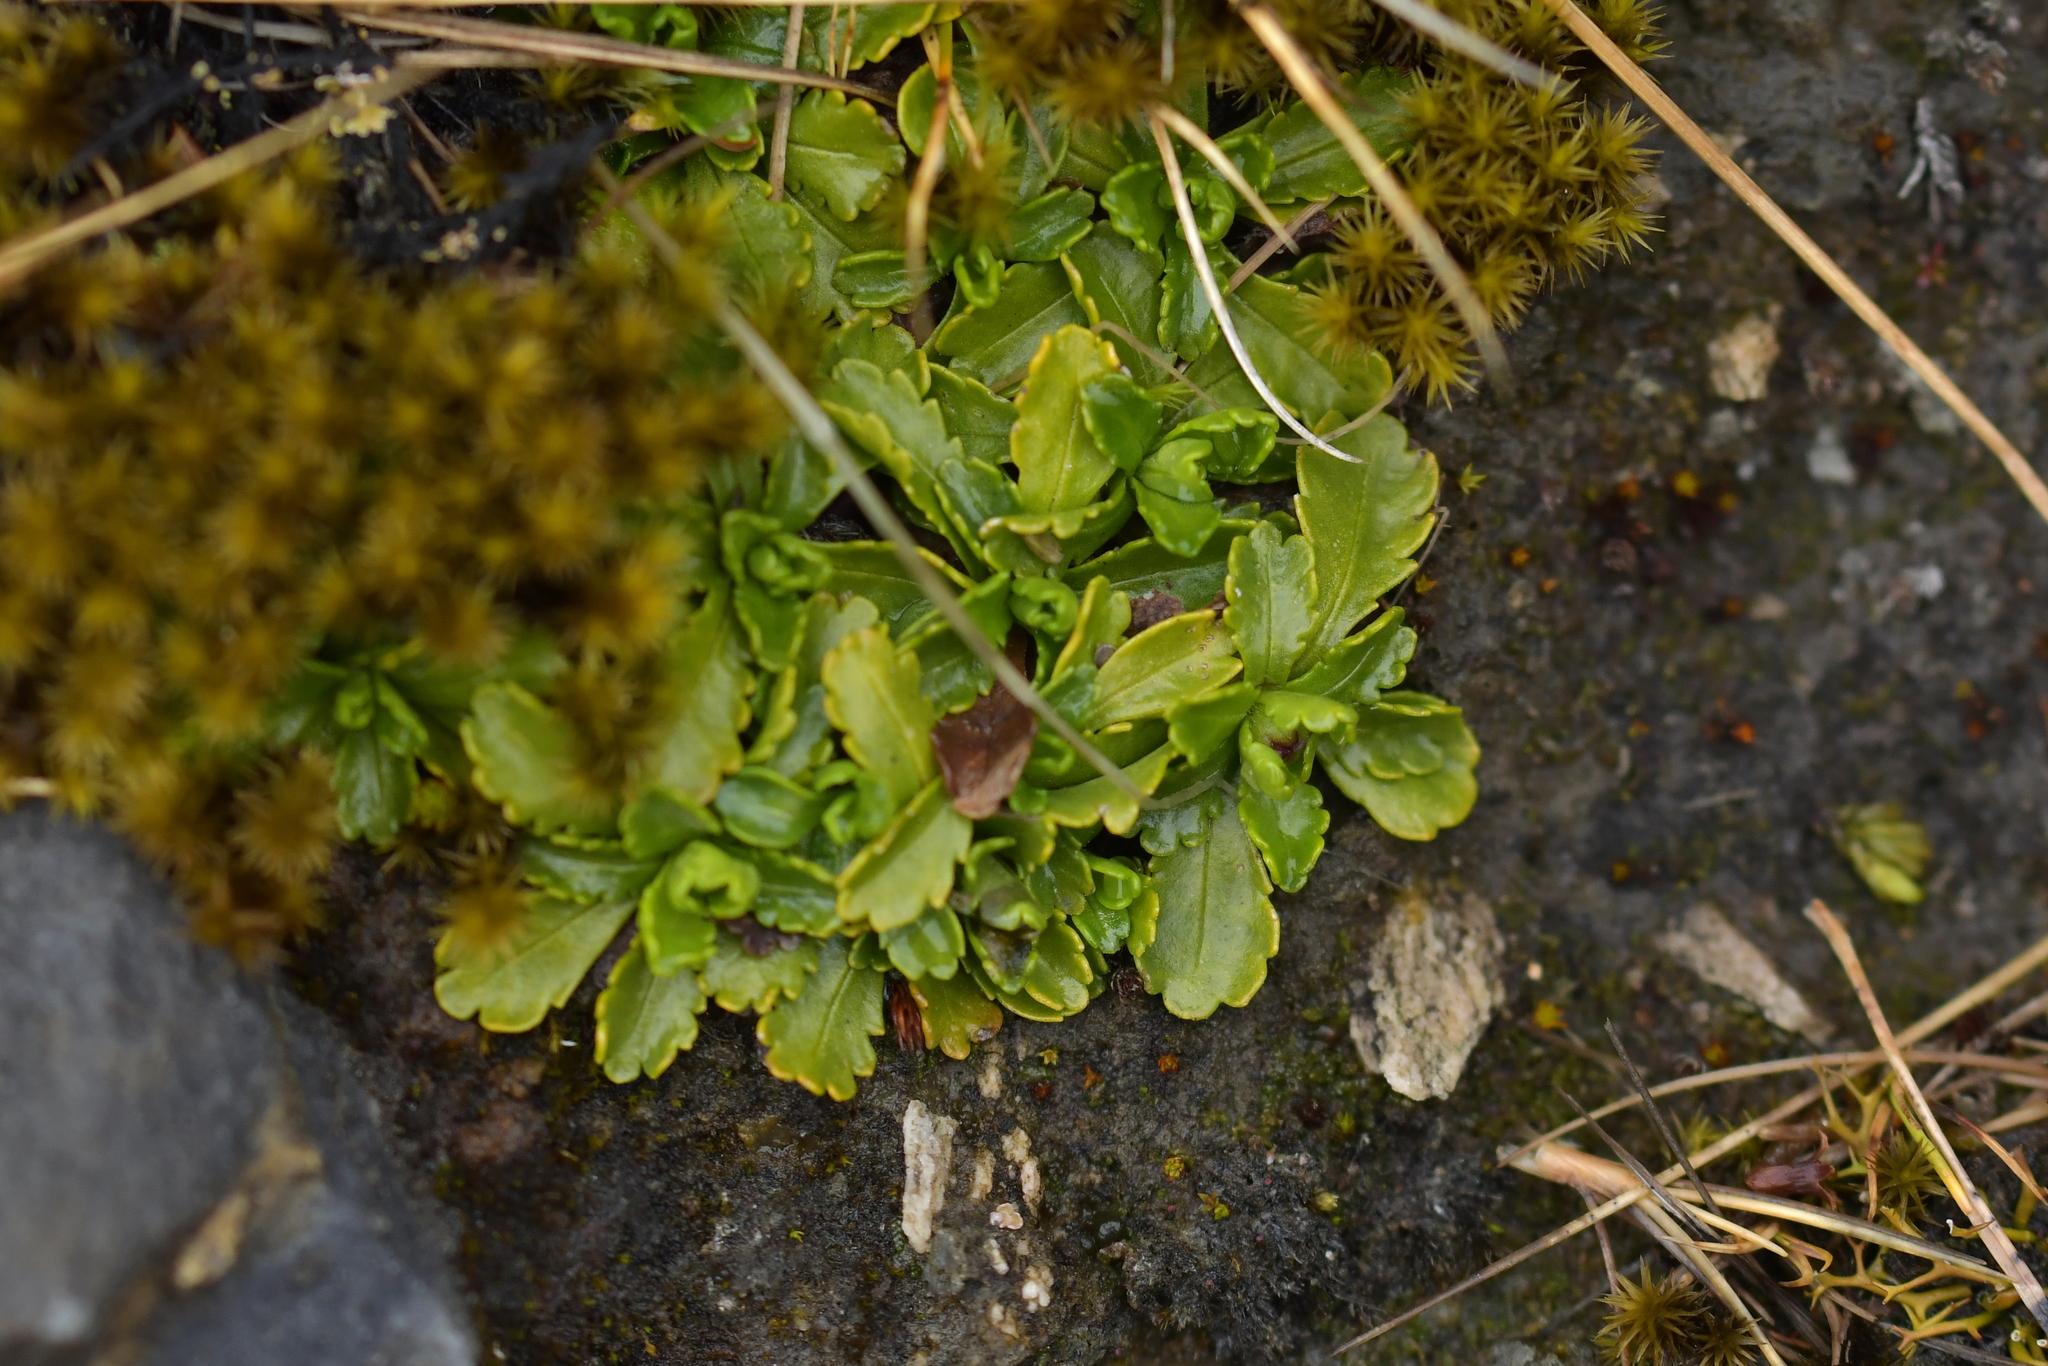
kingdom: Plantae
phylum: Tracheophyta
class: Magnoliopsida
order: Asterales
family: Asteraceae
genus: Brachyscome
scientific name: Brachyscome sinclairii
